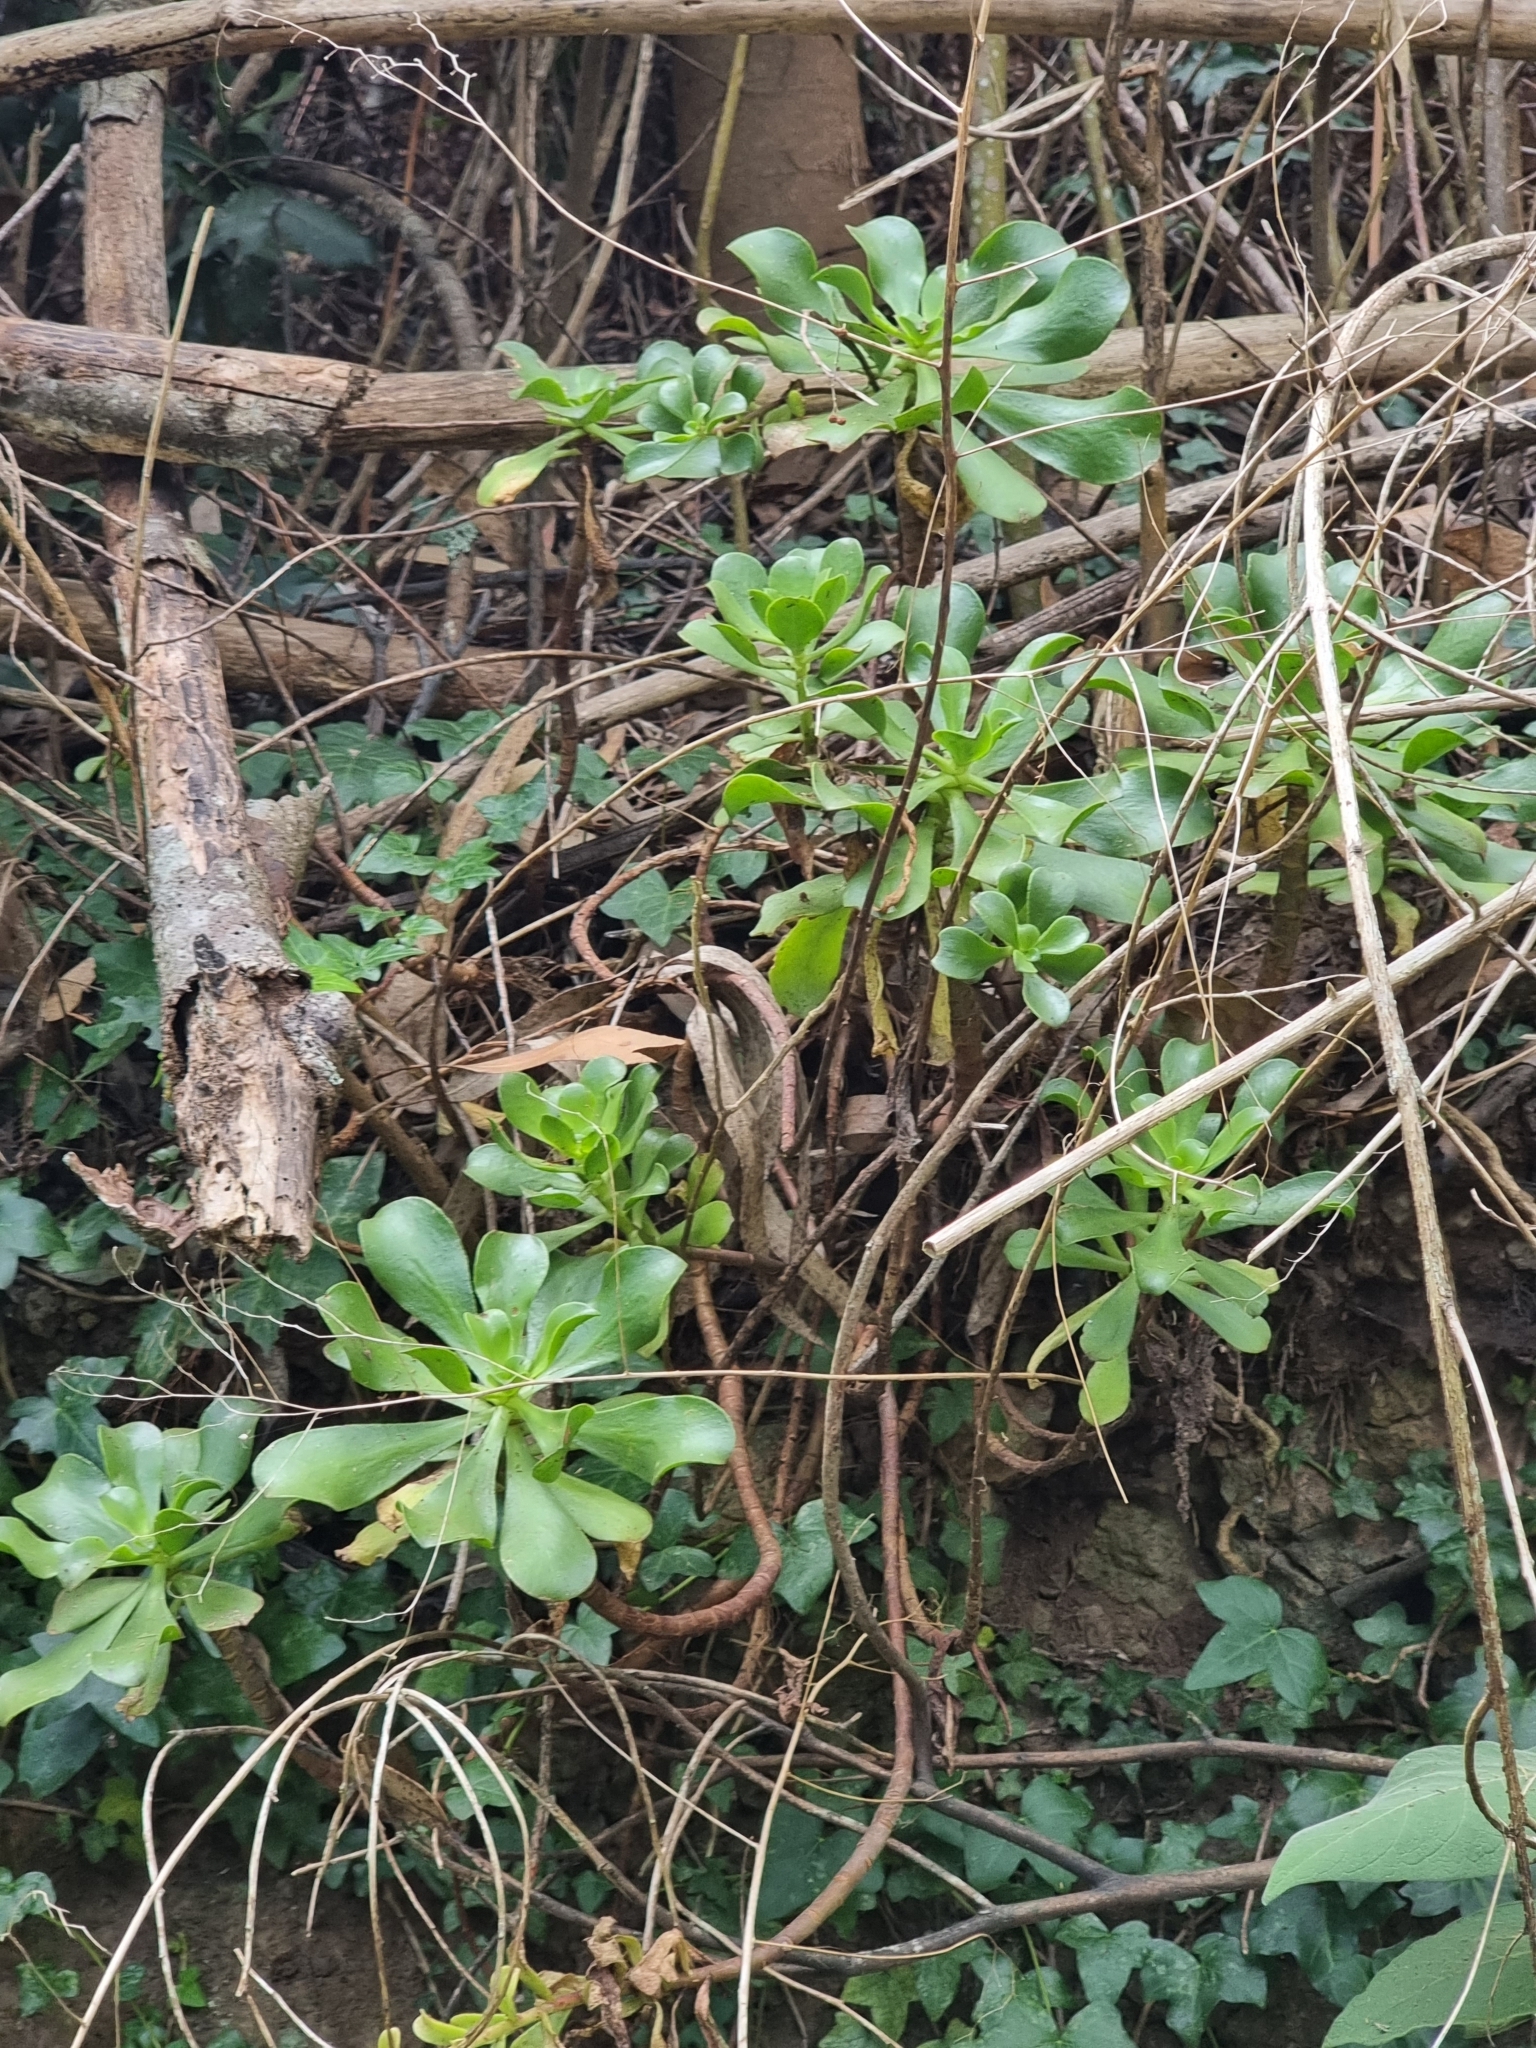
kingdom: Plantae
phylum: Tracheophyta
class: Magnoliopsida
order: Saxifragales
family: Crassulaceae
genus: Aeonium
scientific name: Aeonium glutinosum
